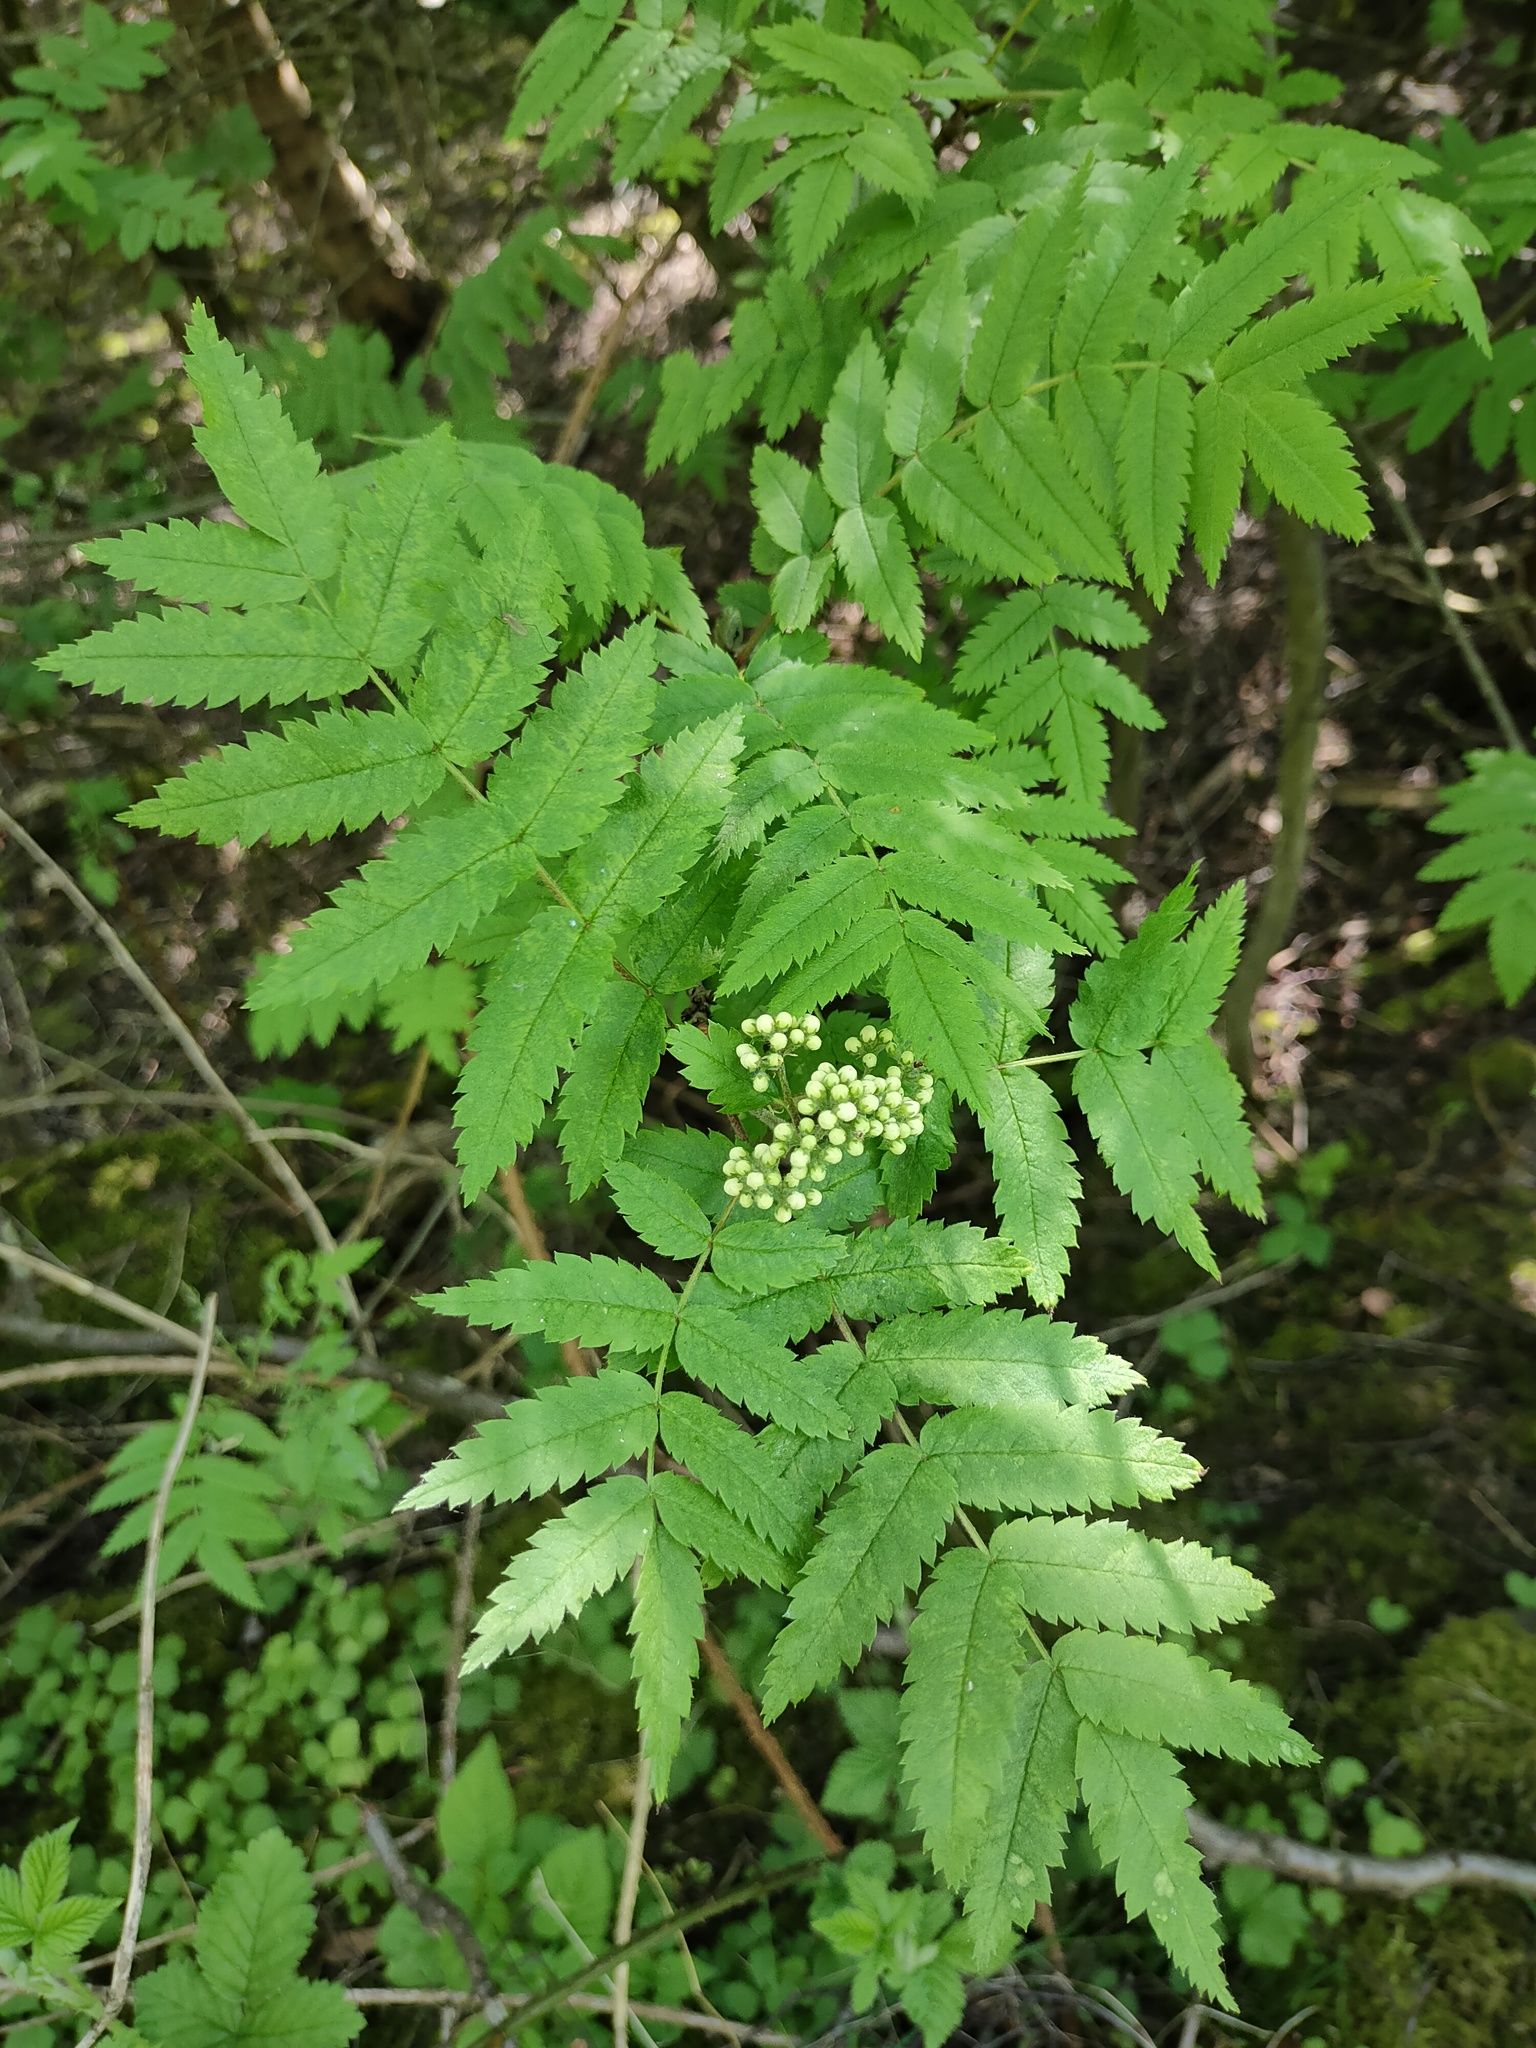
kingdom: Plantae
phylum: Tracheophyta
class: Magnoliopsida
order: Rosales
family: Rosaceae
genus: Sorbus
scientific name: Sorbus aucuparia
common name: Rowan
